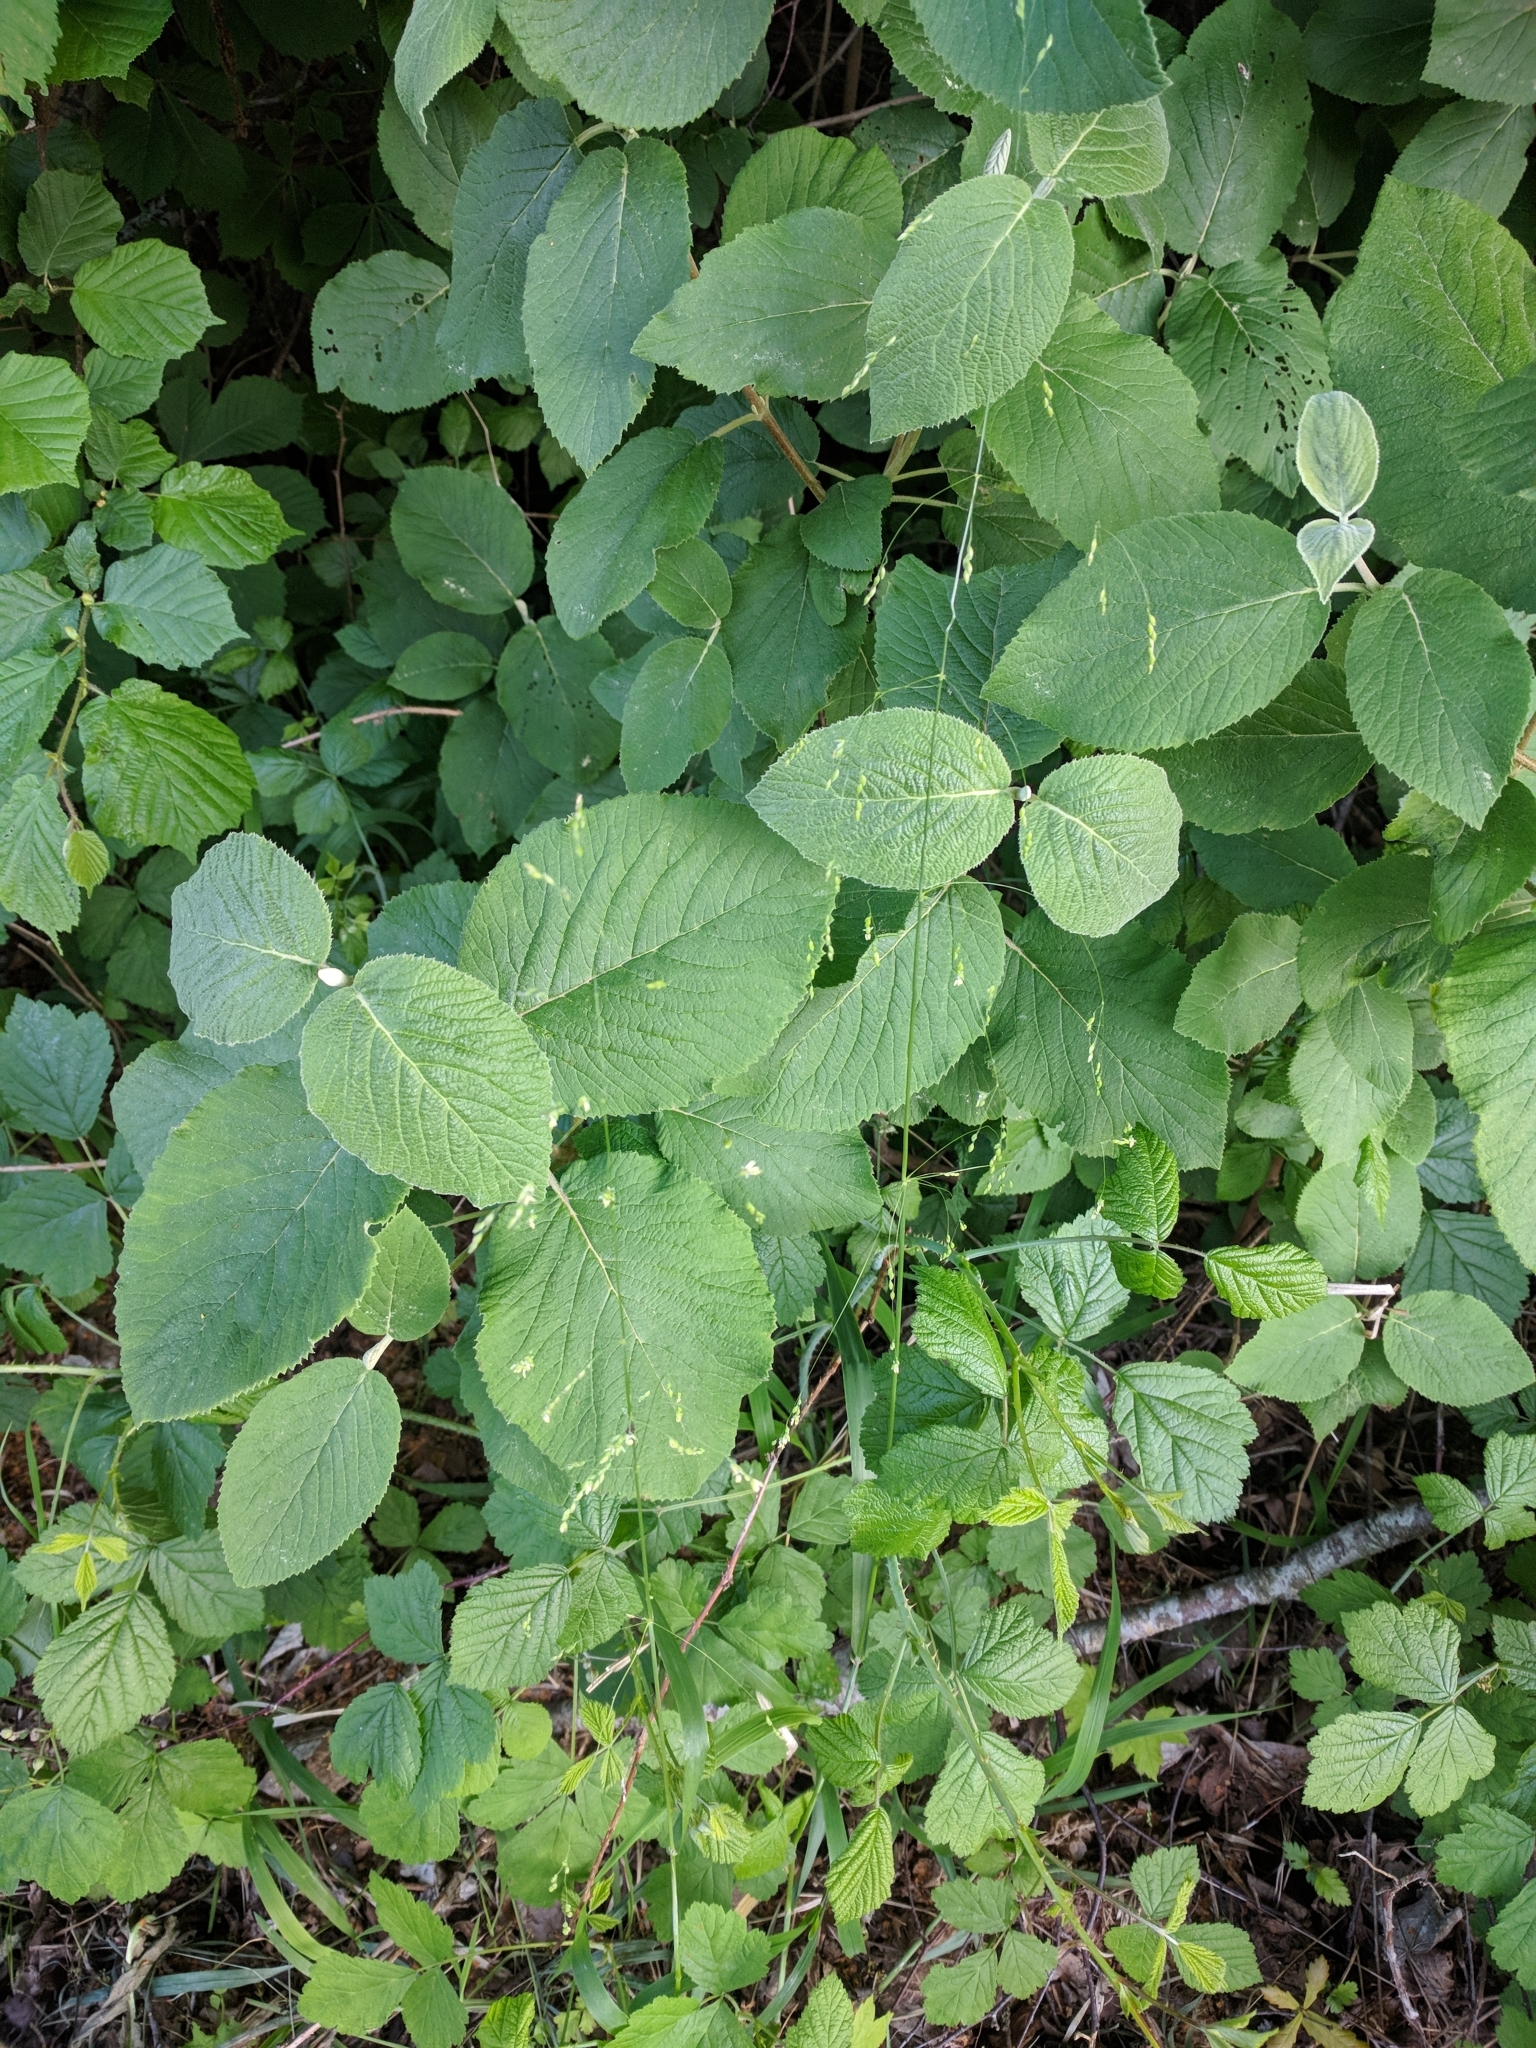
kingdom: Plantae
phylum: Tracheophyta
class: Liliopsida
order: Poales
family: Poaceae
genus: Milium
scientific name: Milium effusum
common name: Wood millet
